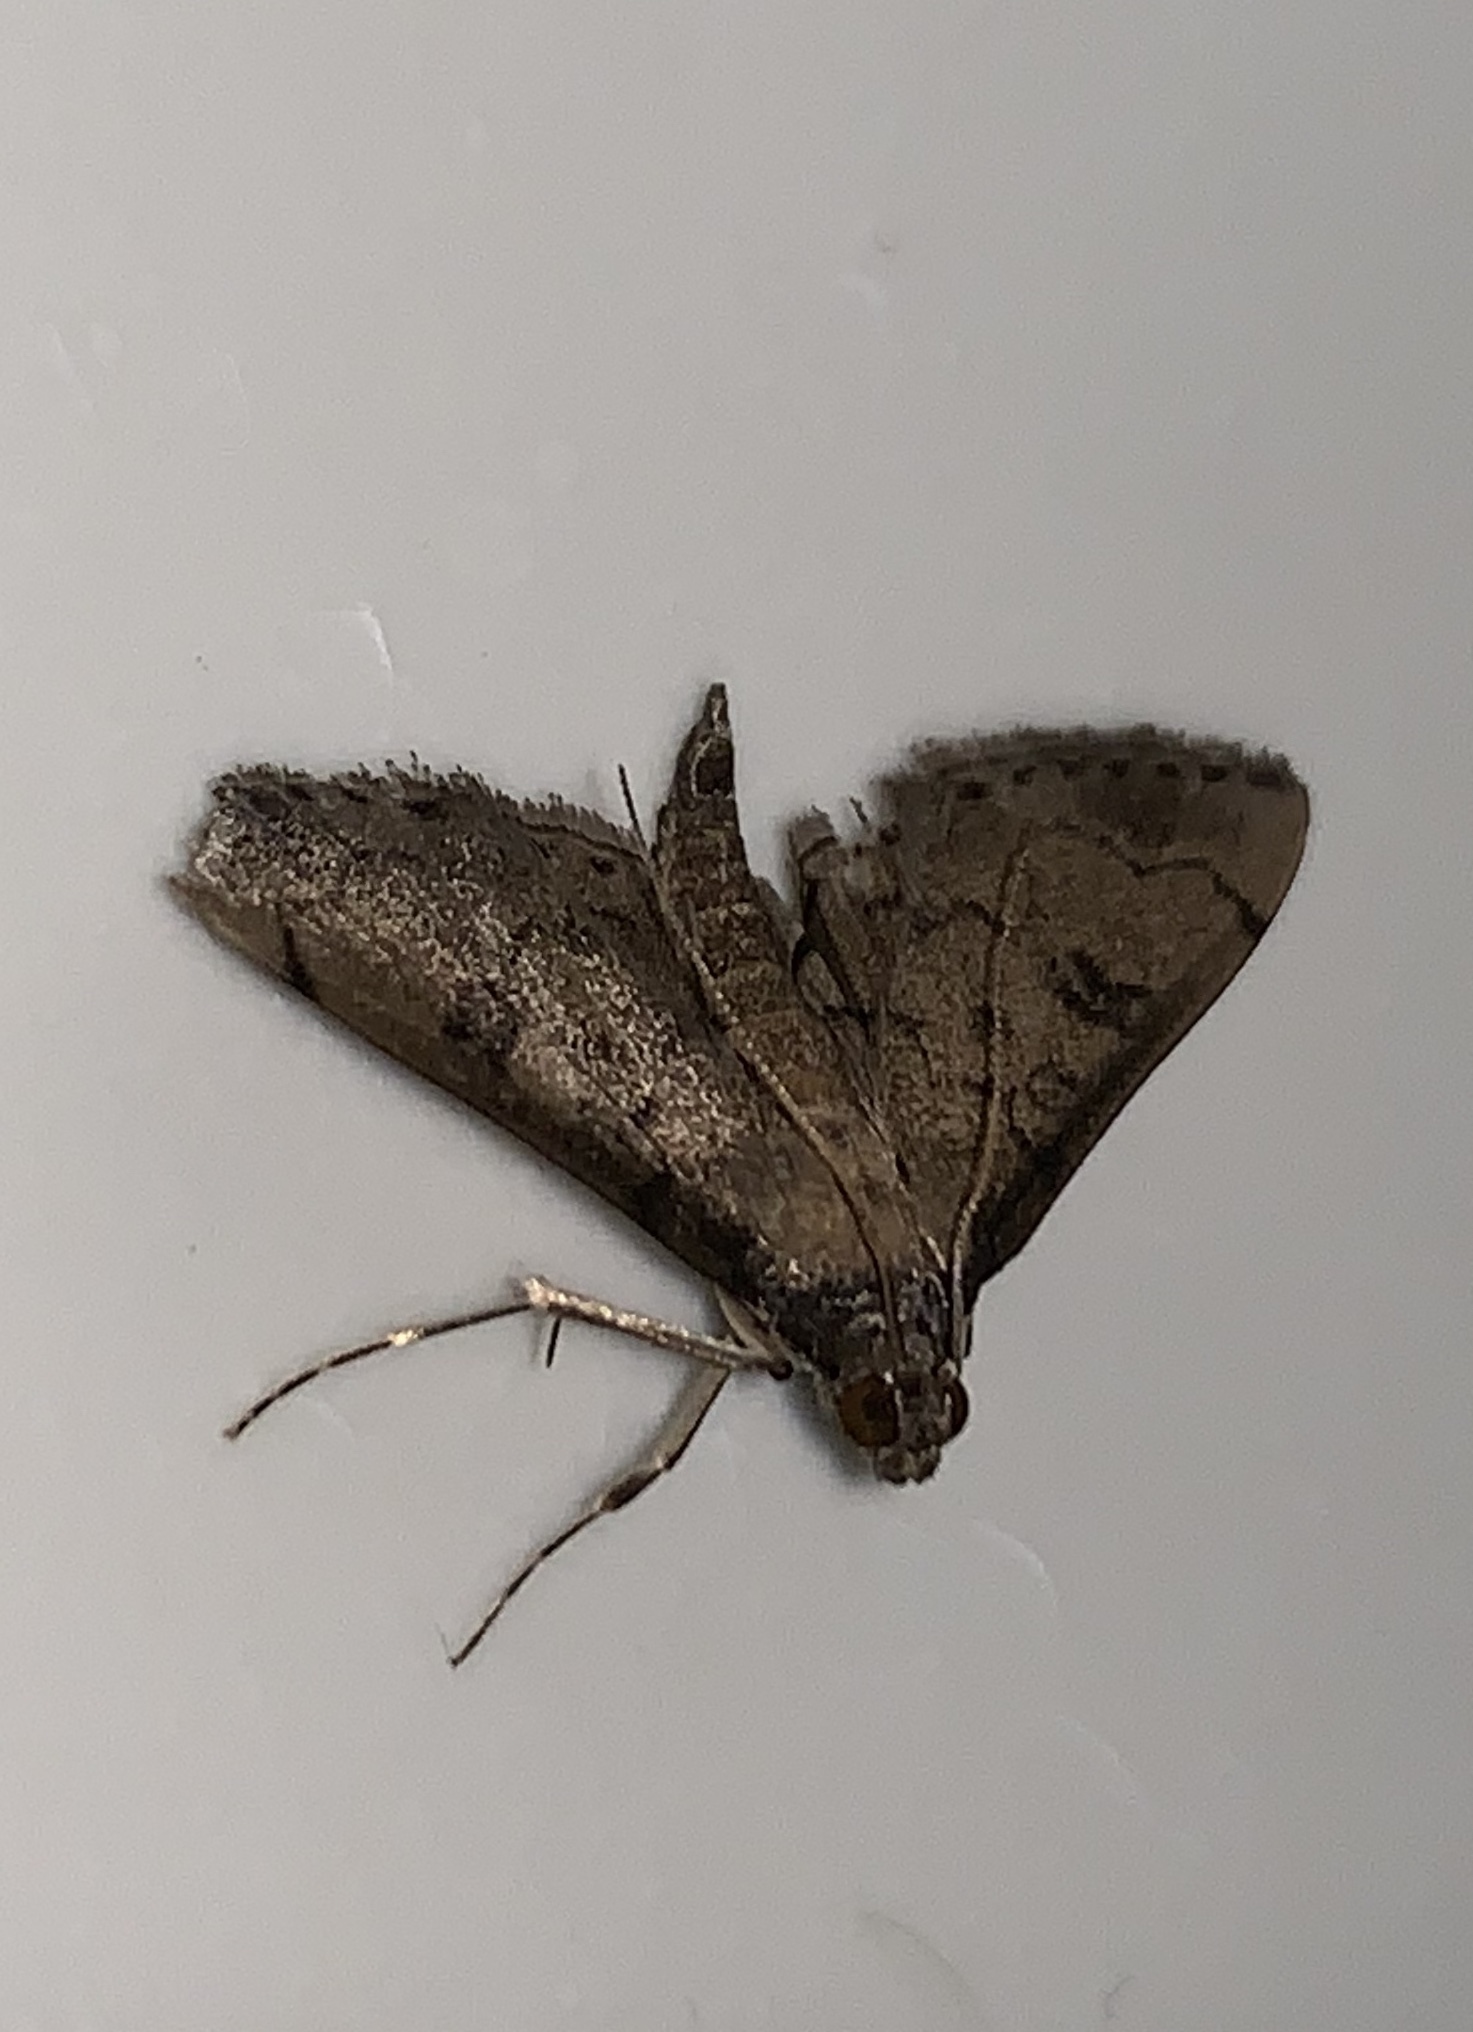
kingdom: Animalia
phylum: Arthropoda
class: Insecta
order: Lepidoptera
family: Crambidae
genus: Nacoleia
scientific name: Nacoleia charesalis
